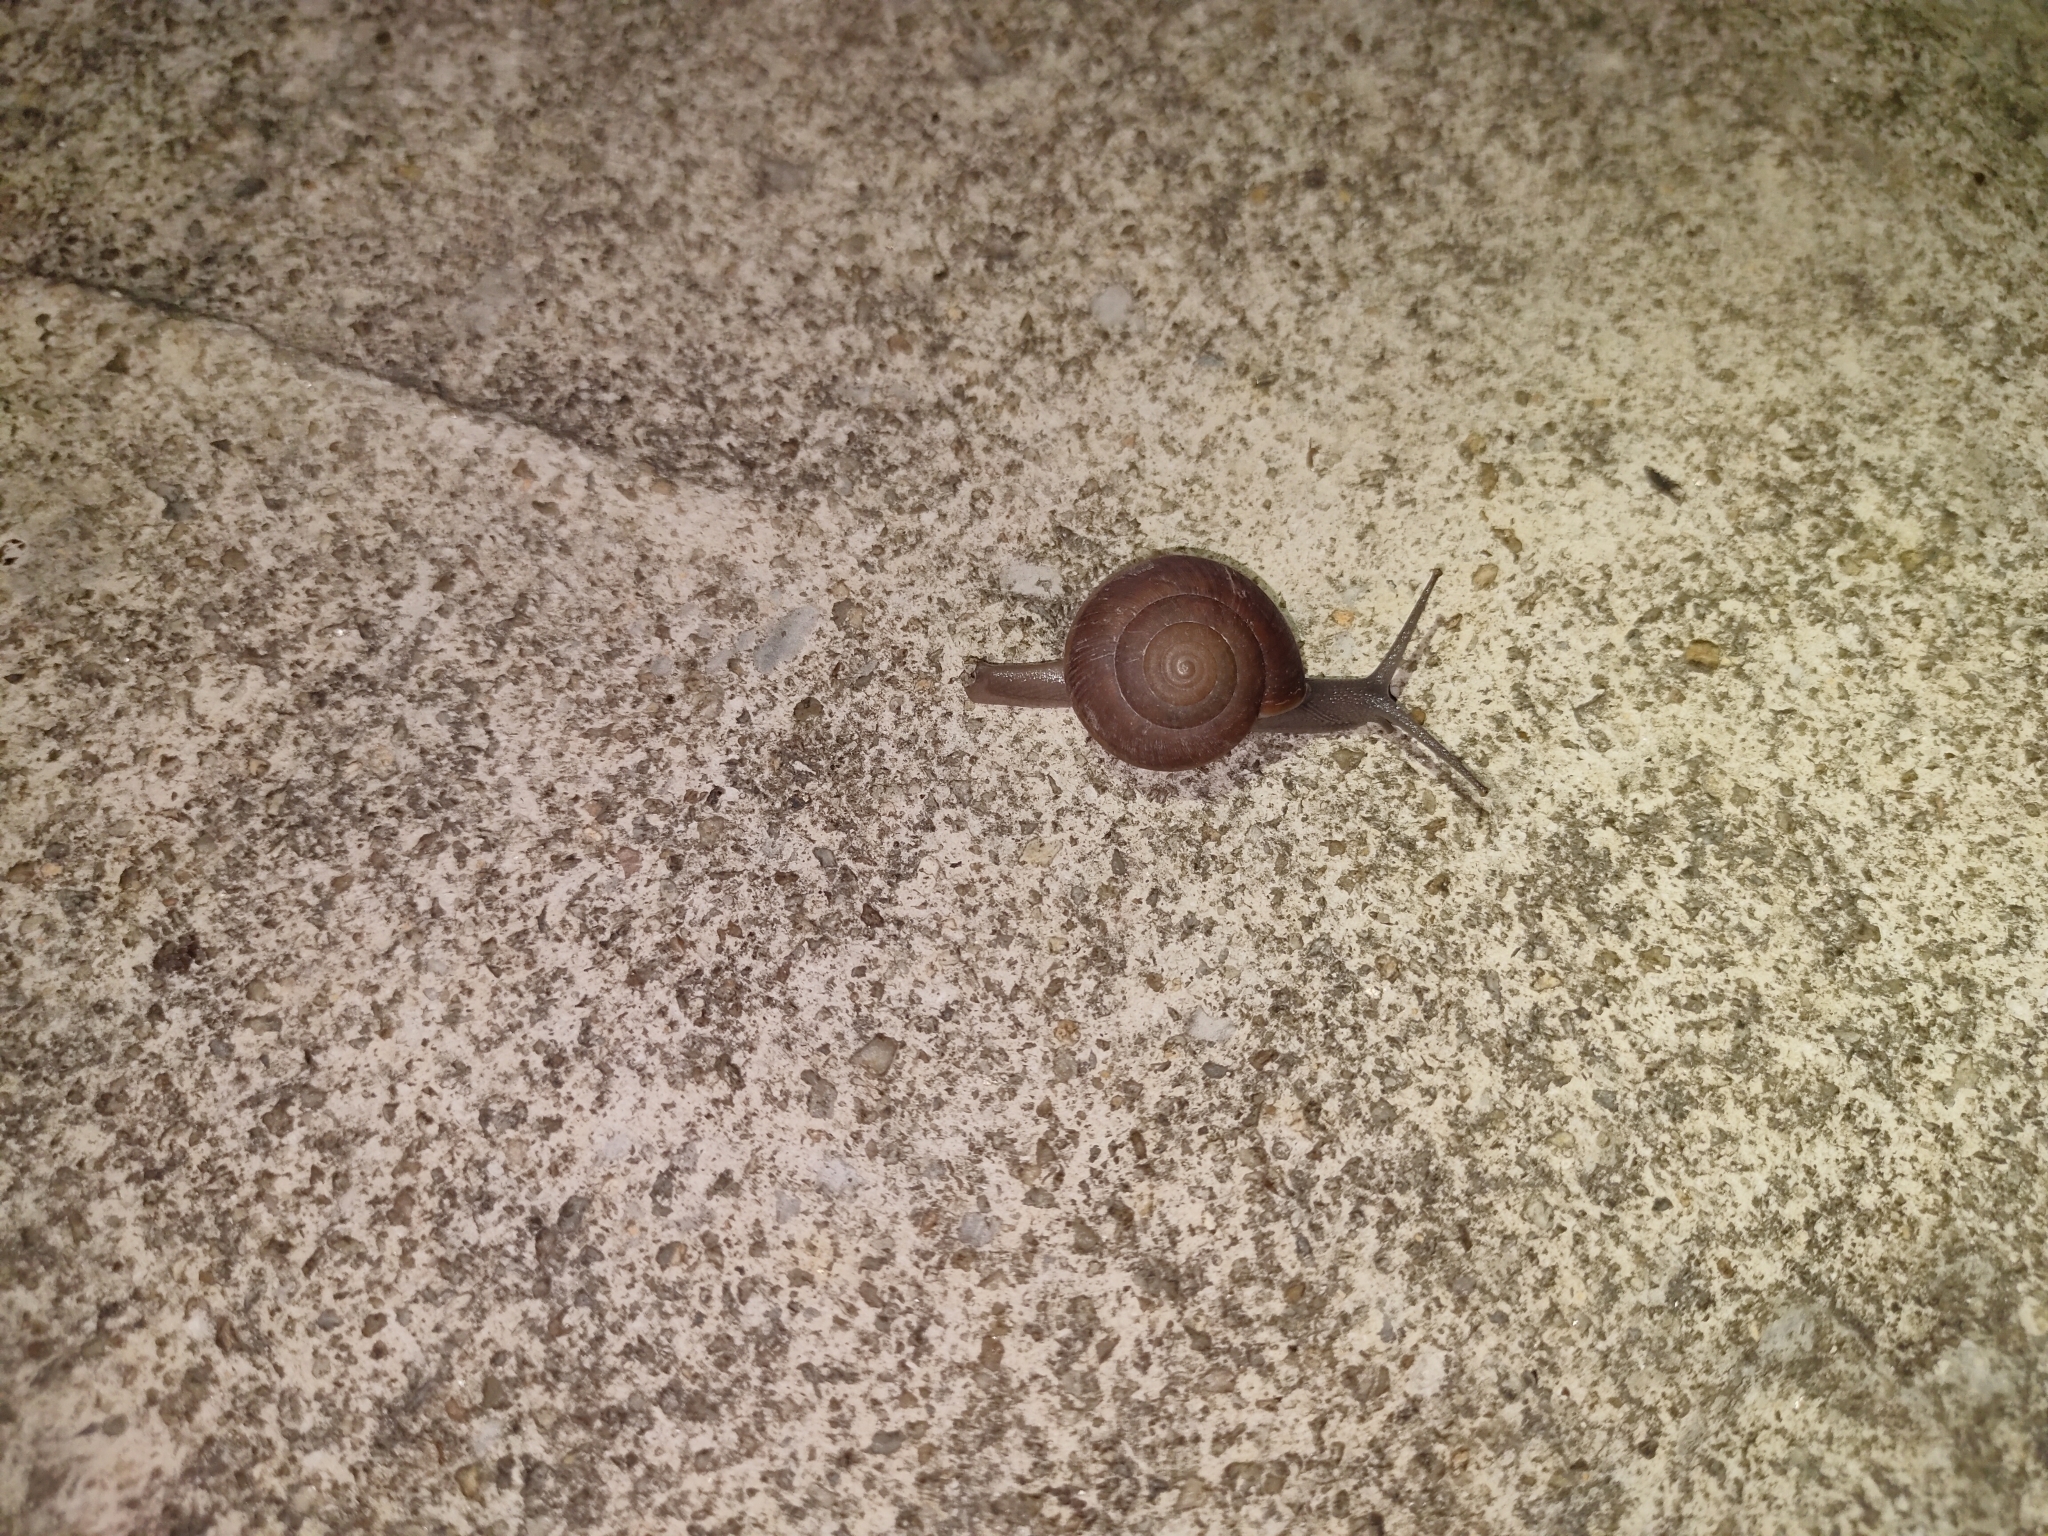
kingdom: Animalia
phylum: Mollusca
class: Gastropoda
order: Stylommatophora
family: Ariophantidae
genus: Sarika
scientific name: Sarika siamensis
